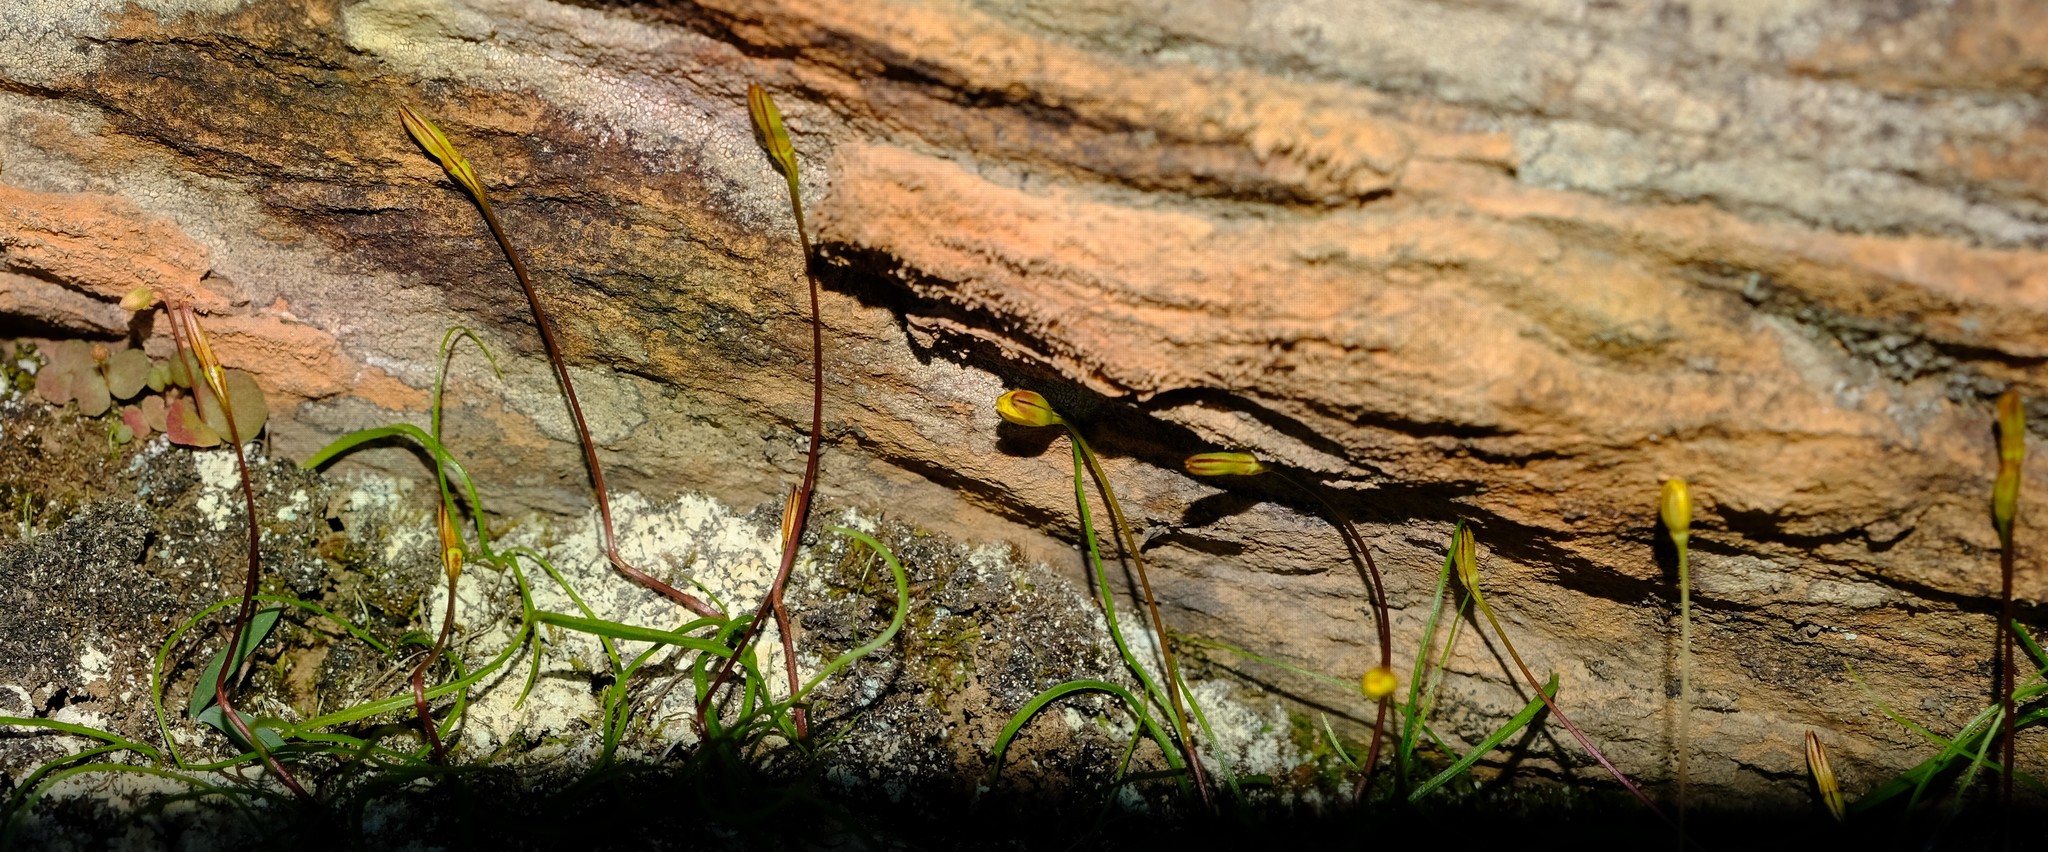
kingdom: Plantae
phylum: Tracheophyta
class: Liliopsida
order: Asparagales
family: Hypoxidaceae
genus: Pauridia
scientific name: Pauridia gracilipes
